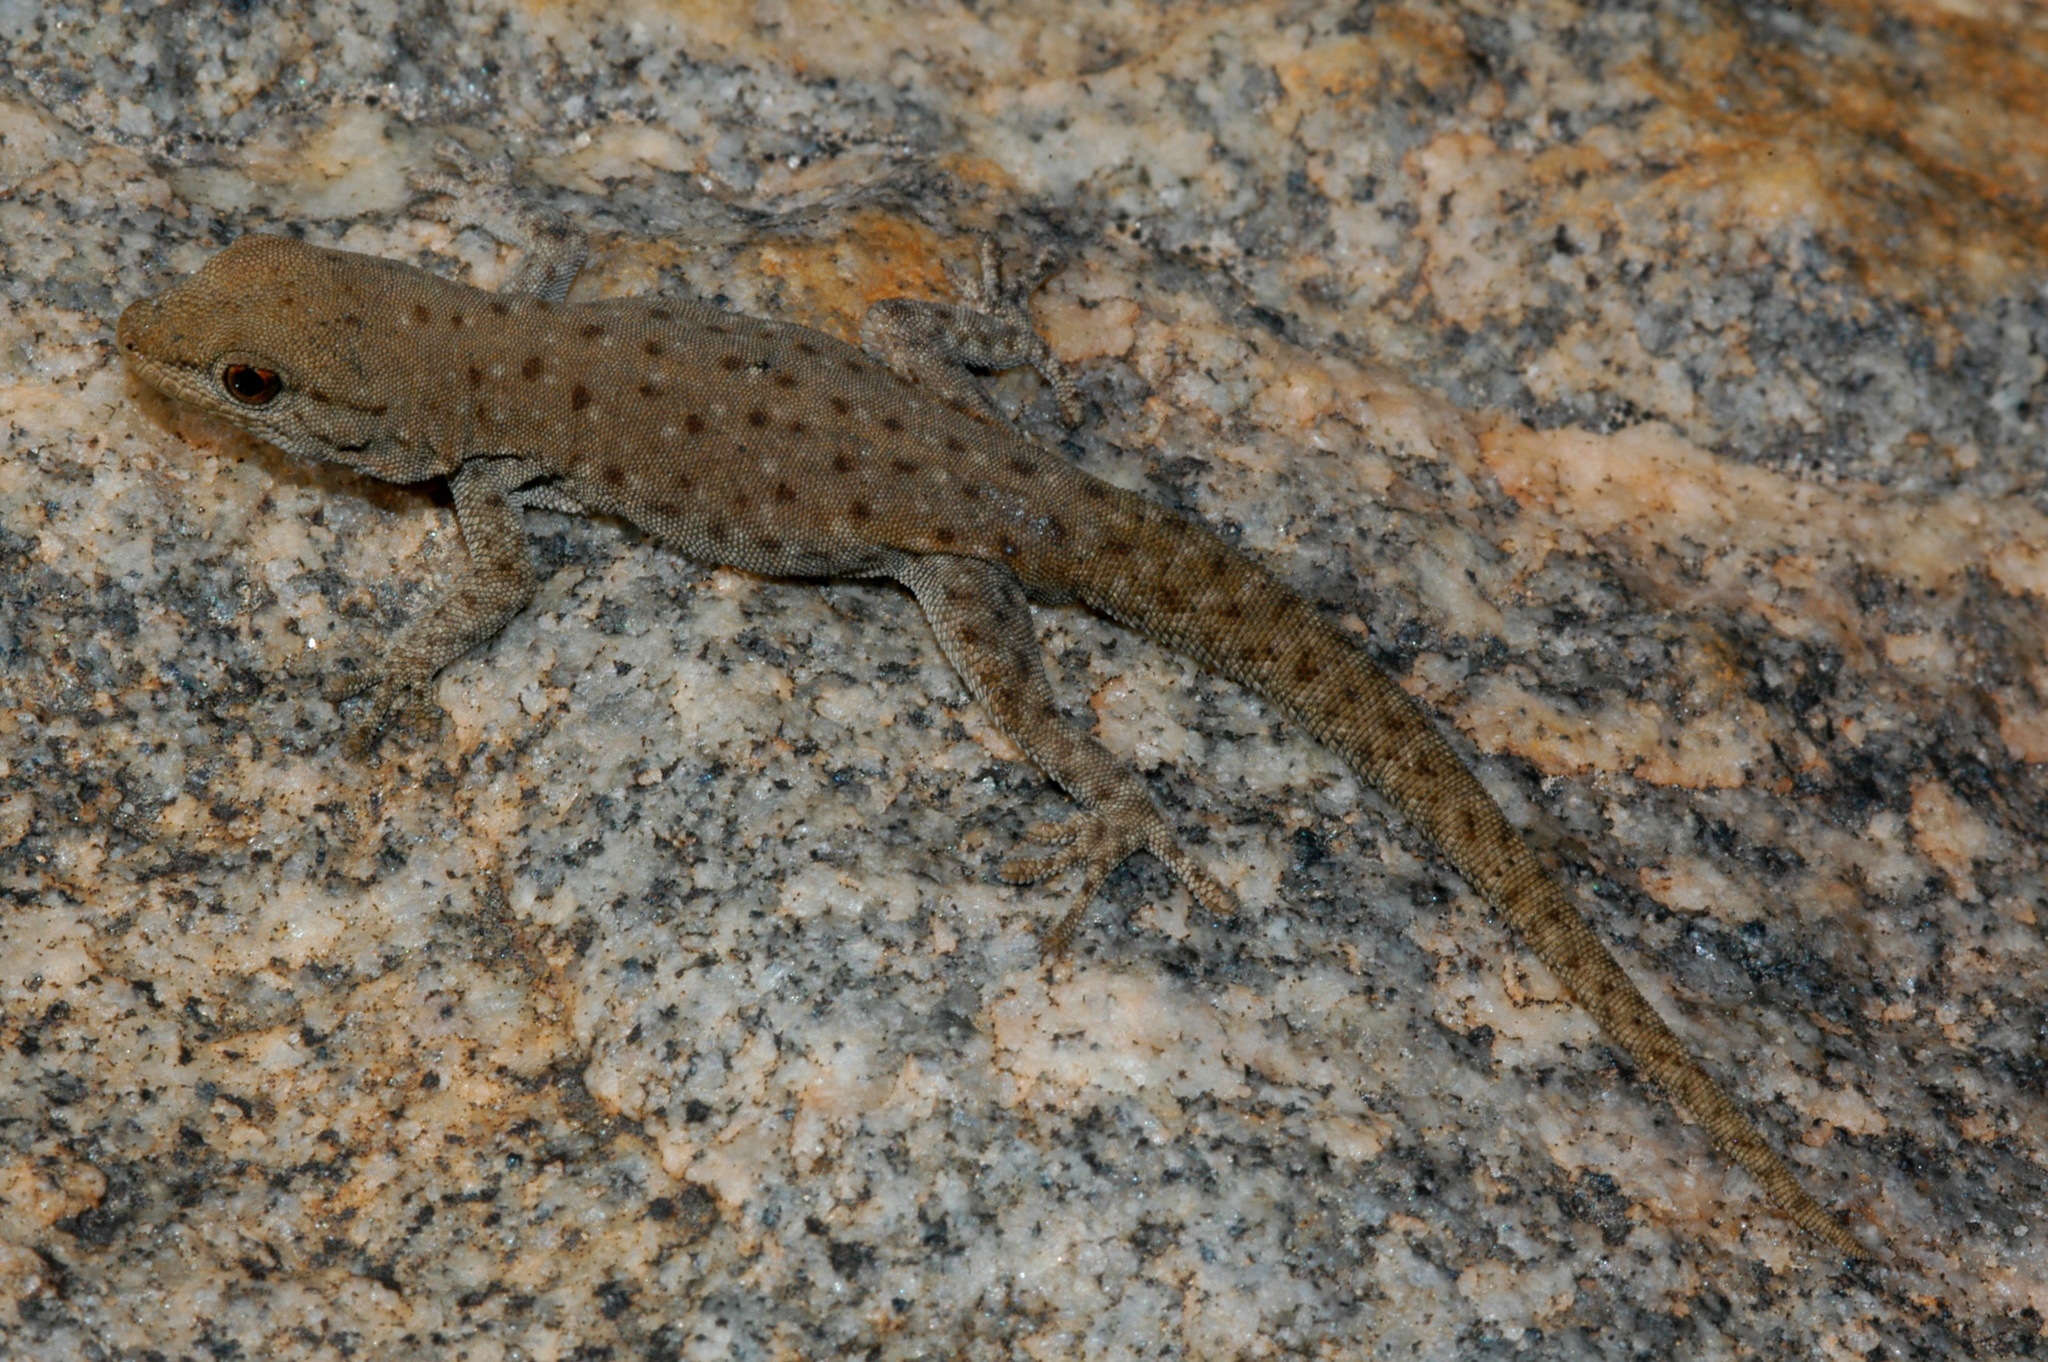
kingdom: Animalia
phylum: Chordata
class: Squamata
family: Gekkonidae
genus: Rhoptropella
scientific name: Rhoptropella ocellata
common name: Namaqua day gecko
